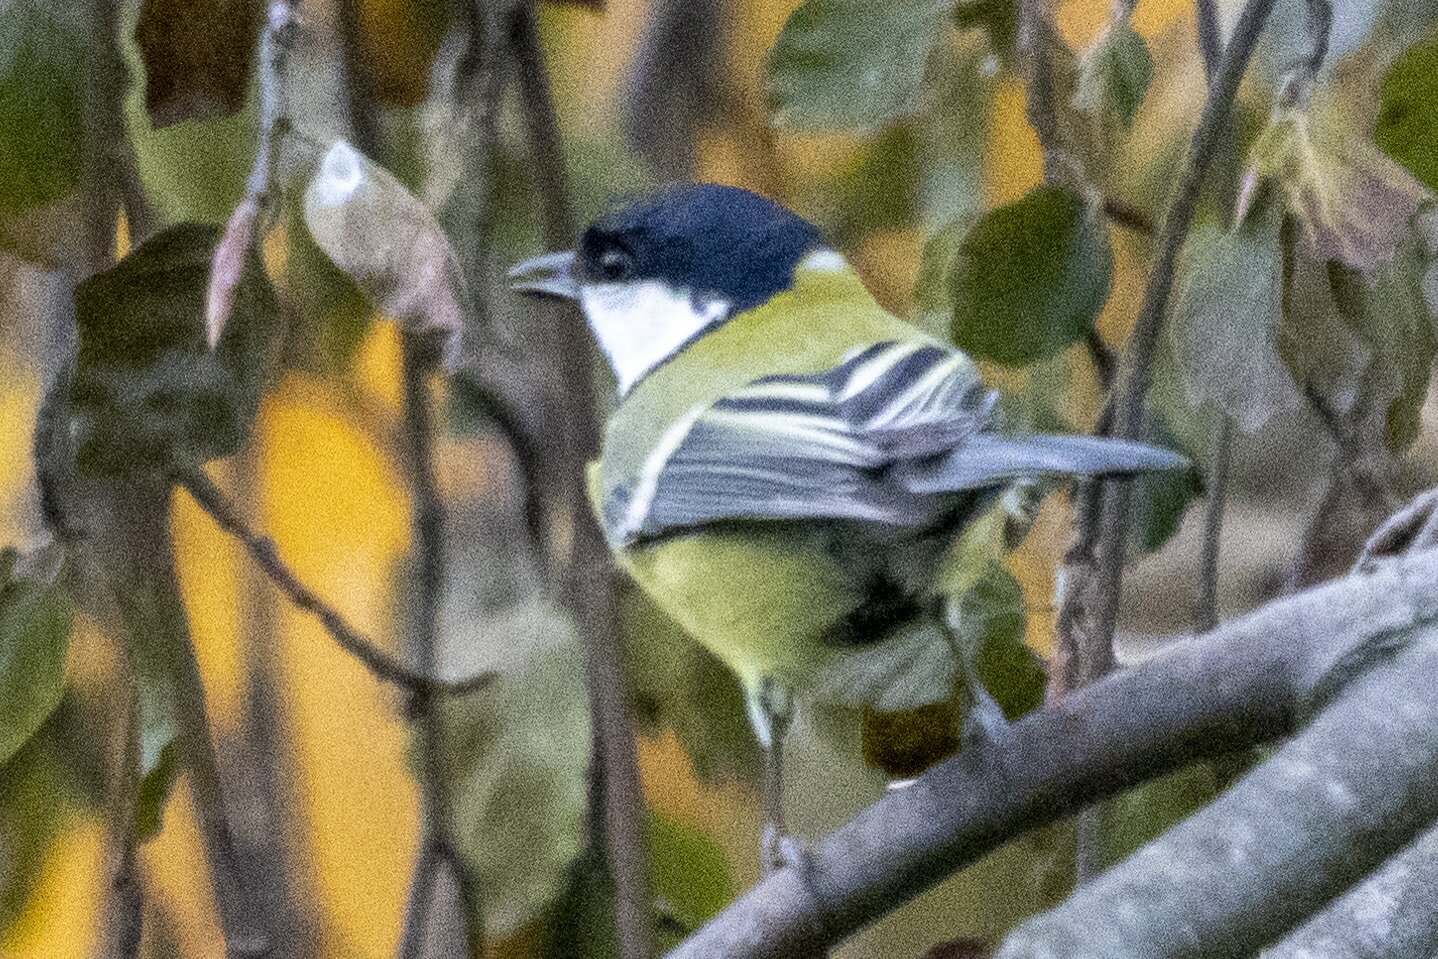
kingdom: Animalia
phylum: Chordata
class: Aves
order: Passeriformes
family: Paridae
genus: Parus
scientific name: Parus major
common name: Great tit
